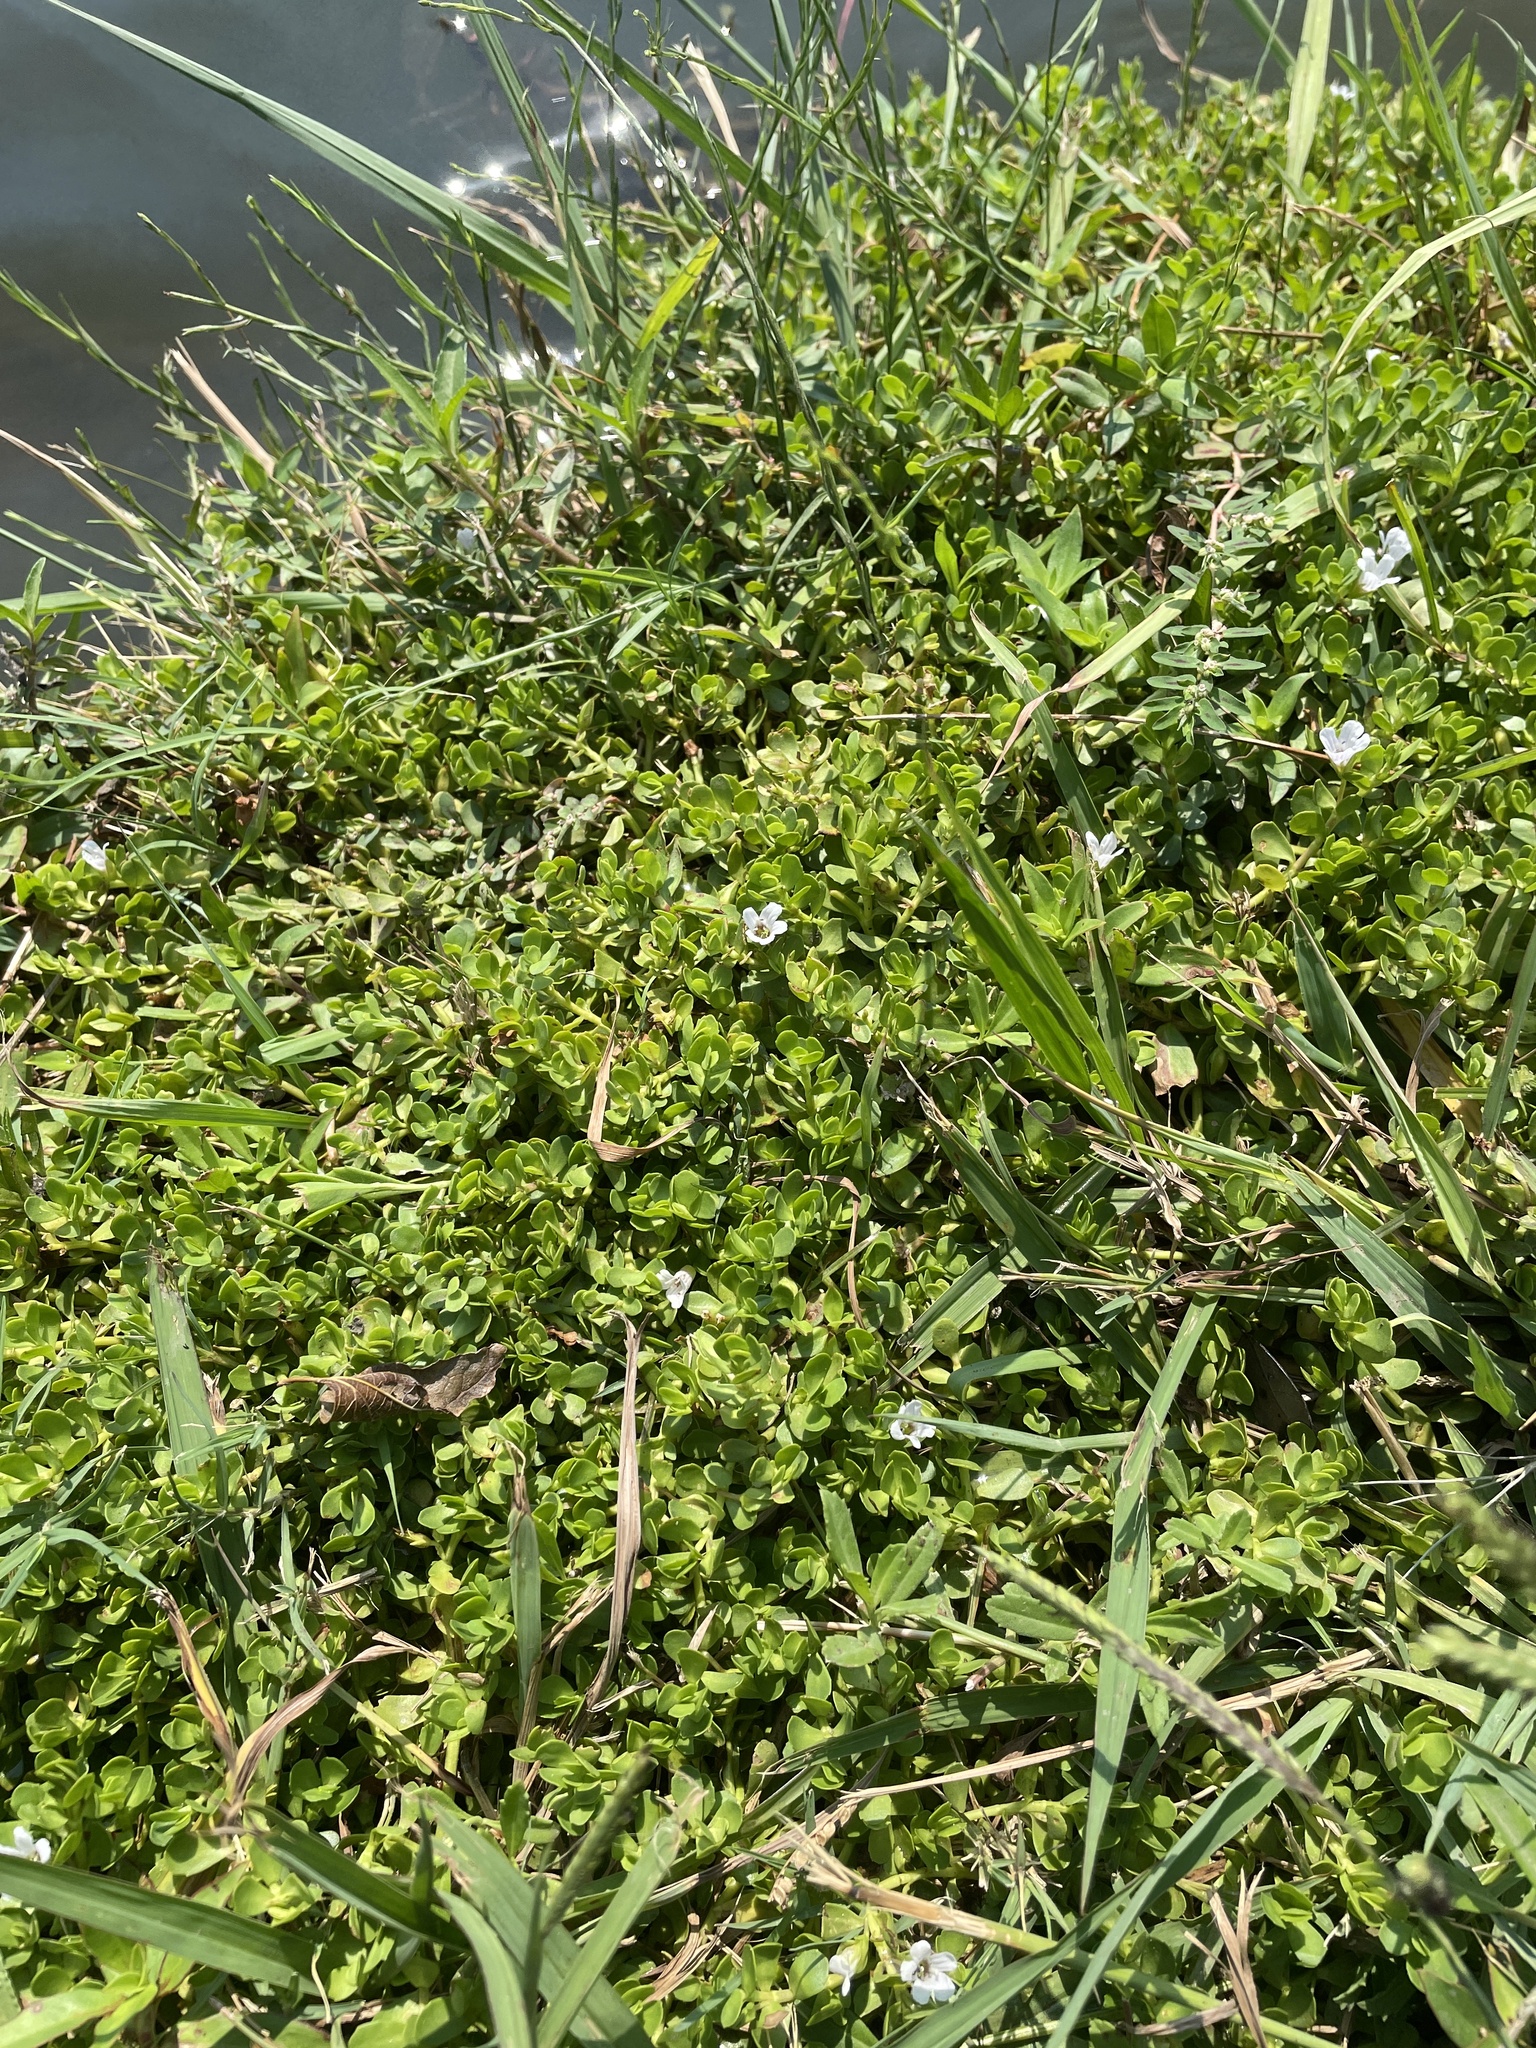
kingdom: Plantae
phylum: Tracheophyta
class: Magnoliopsida
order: Lamiales
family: Plantaginaceae
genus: Bacopa
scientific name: Bacopa monnieri
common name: Indian-pennywort
